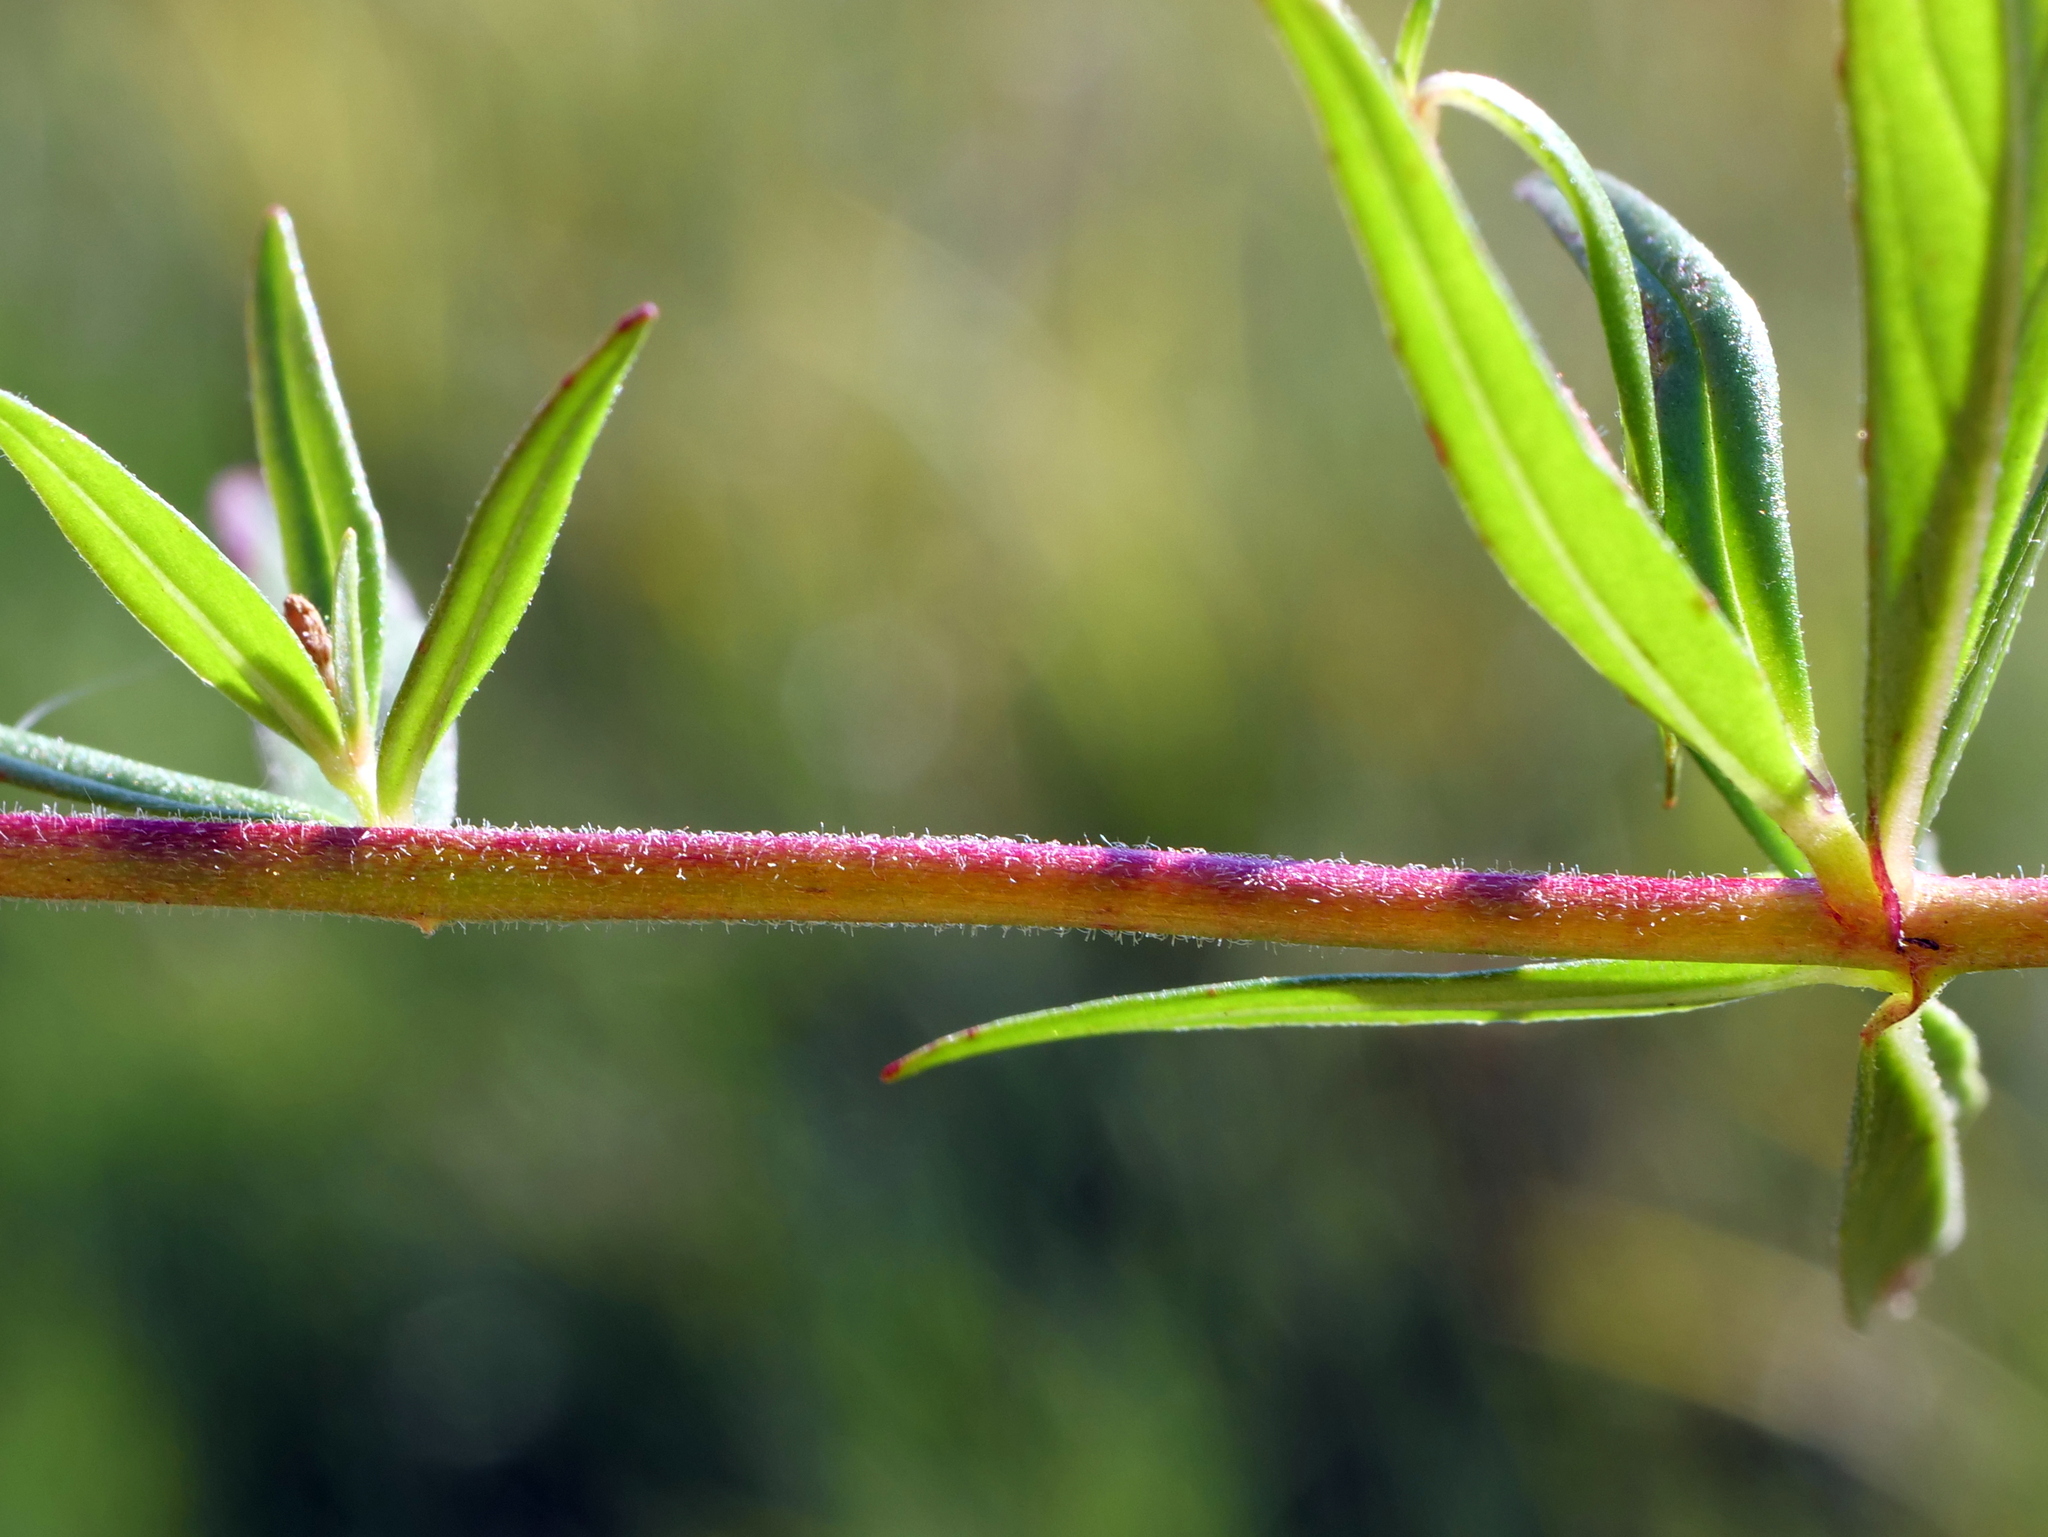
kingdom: Plantae
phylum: Tracheophyta
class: Magnoliopsida
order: Myrtales
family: Onagraceae
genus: Epilobium
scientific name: Epilobium palustre
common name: Marsh willowherb
